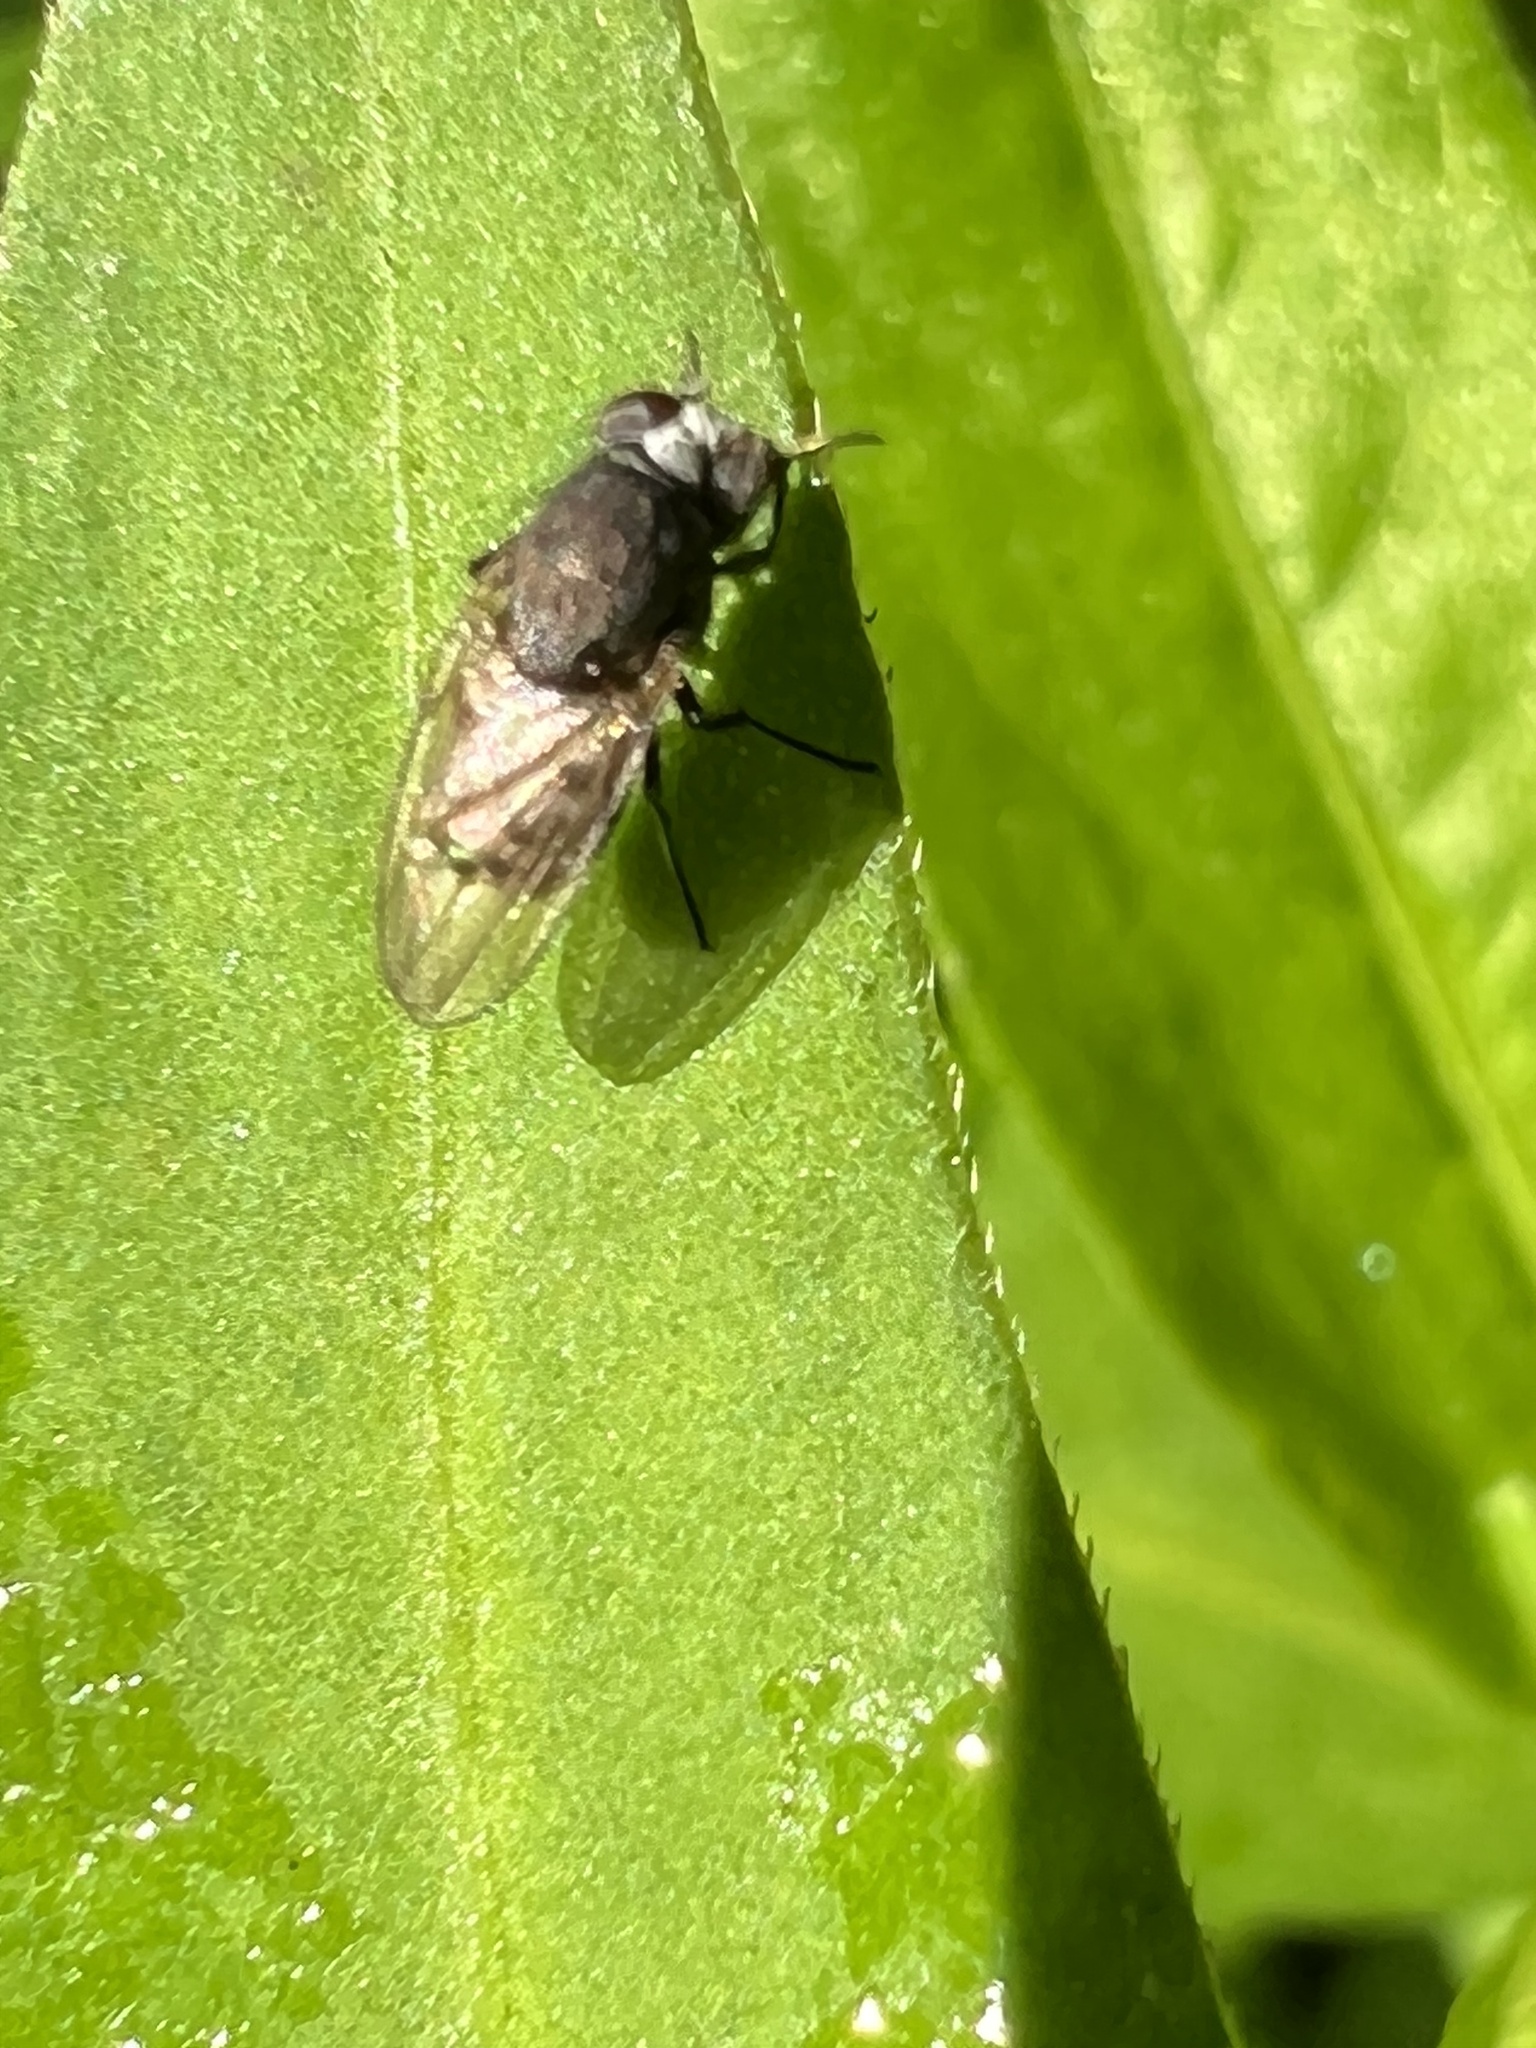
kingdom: Animalia
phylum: Arthropoda
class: Insecta
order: Diptera
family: Ephydridae
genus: Paralimna
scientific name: Paralimna punctipennis
